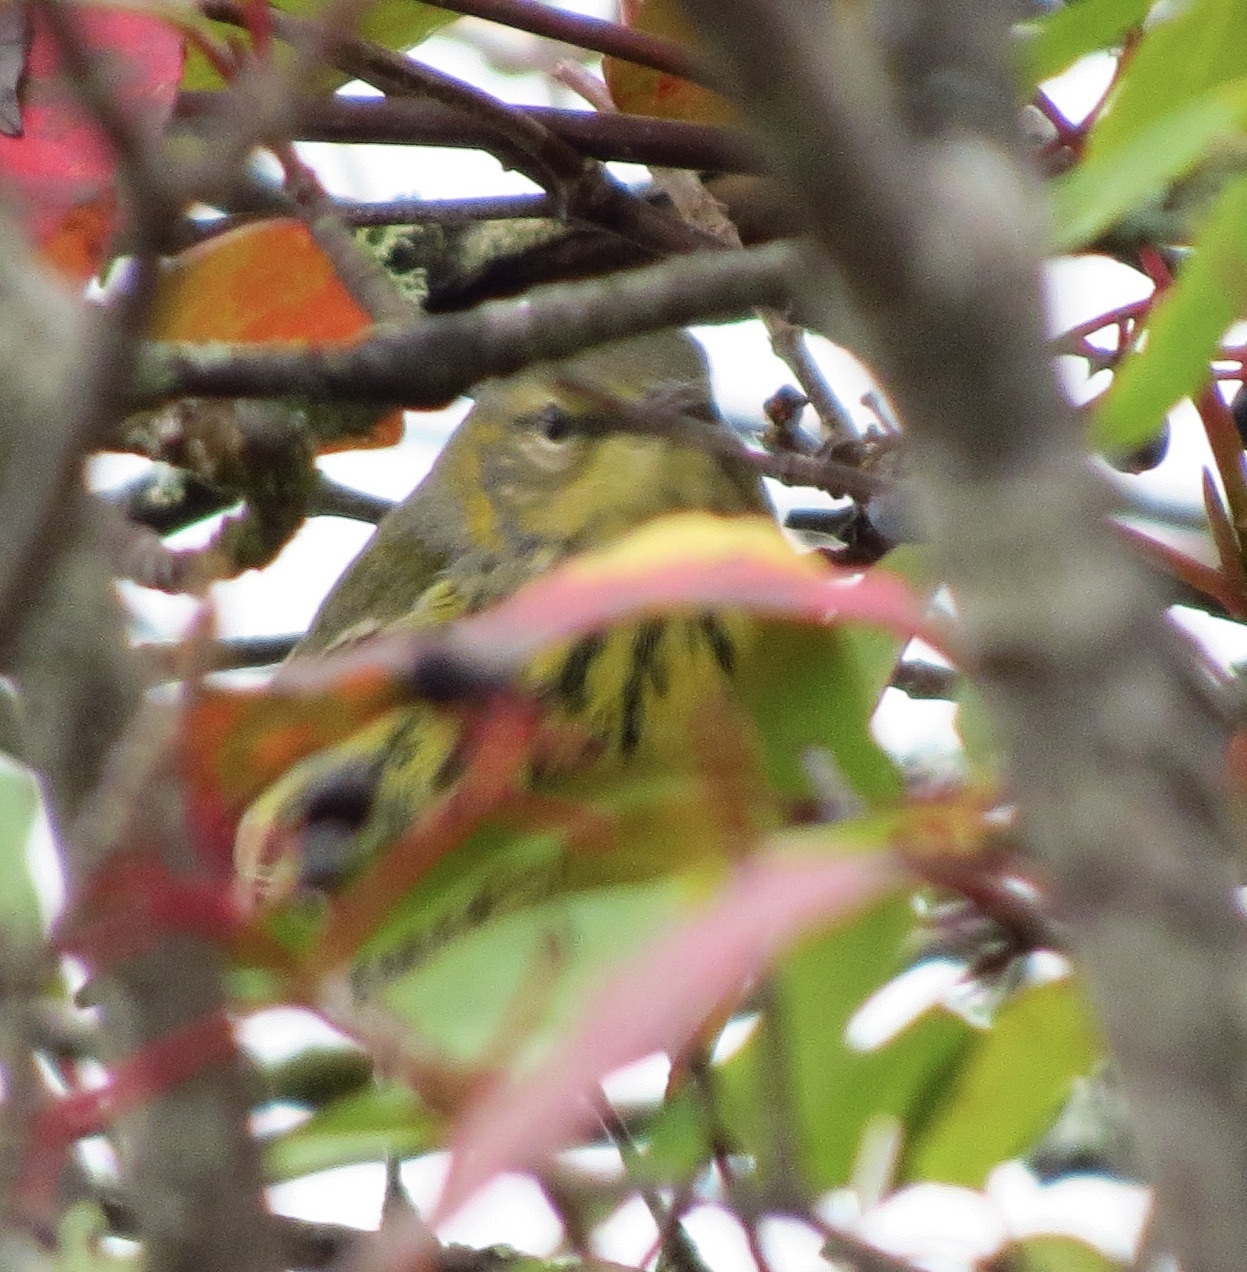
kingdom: Animalia
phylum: Chordata
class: Aves
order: Passeriformes
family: Parulidae
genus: Setophaga
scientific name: Setophaga tigrina
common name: Cape may warbler
